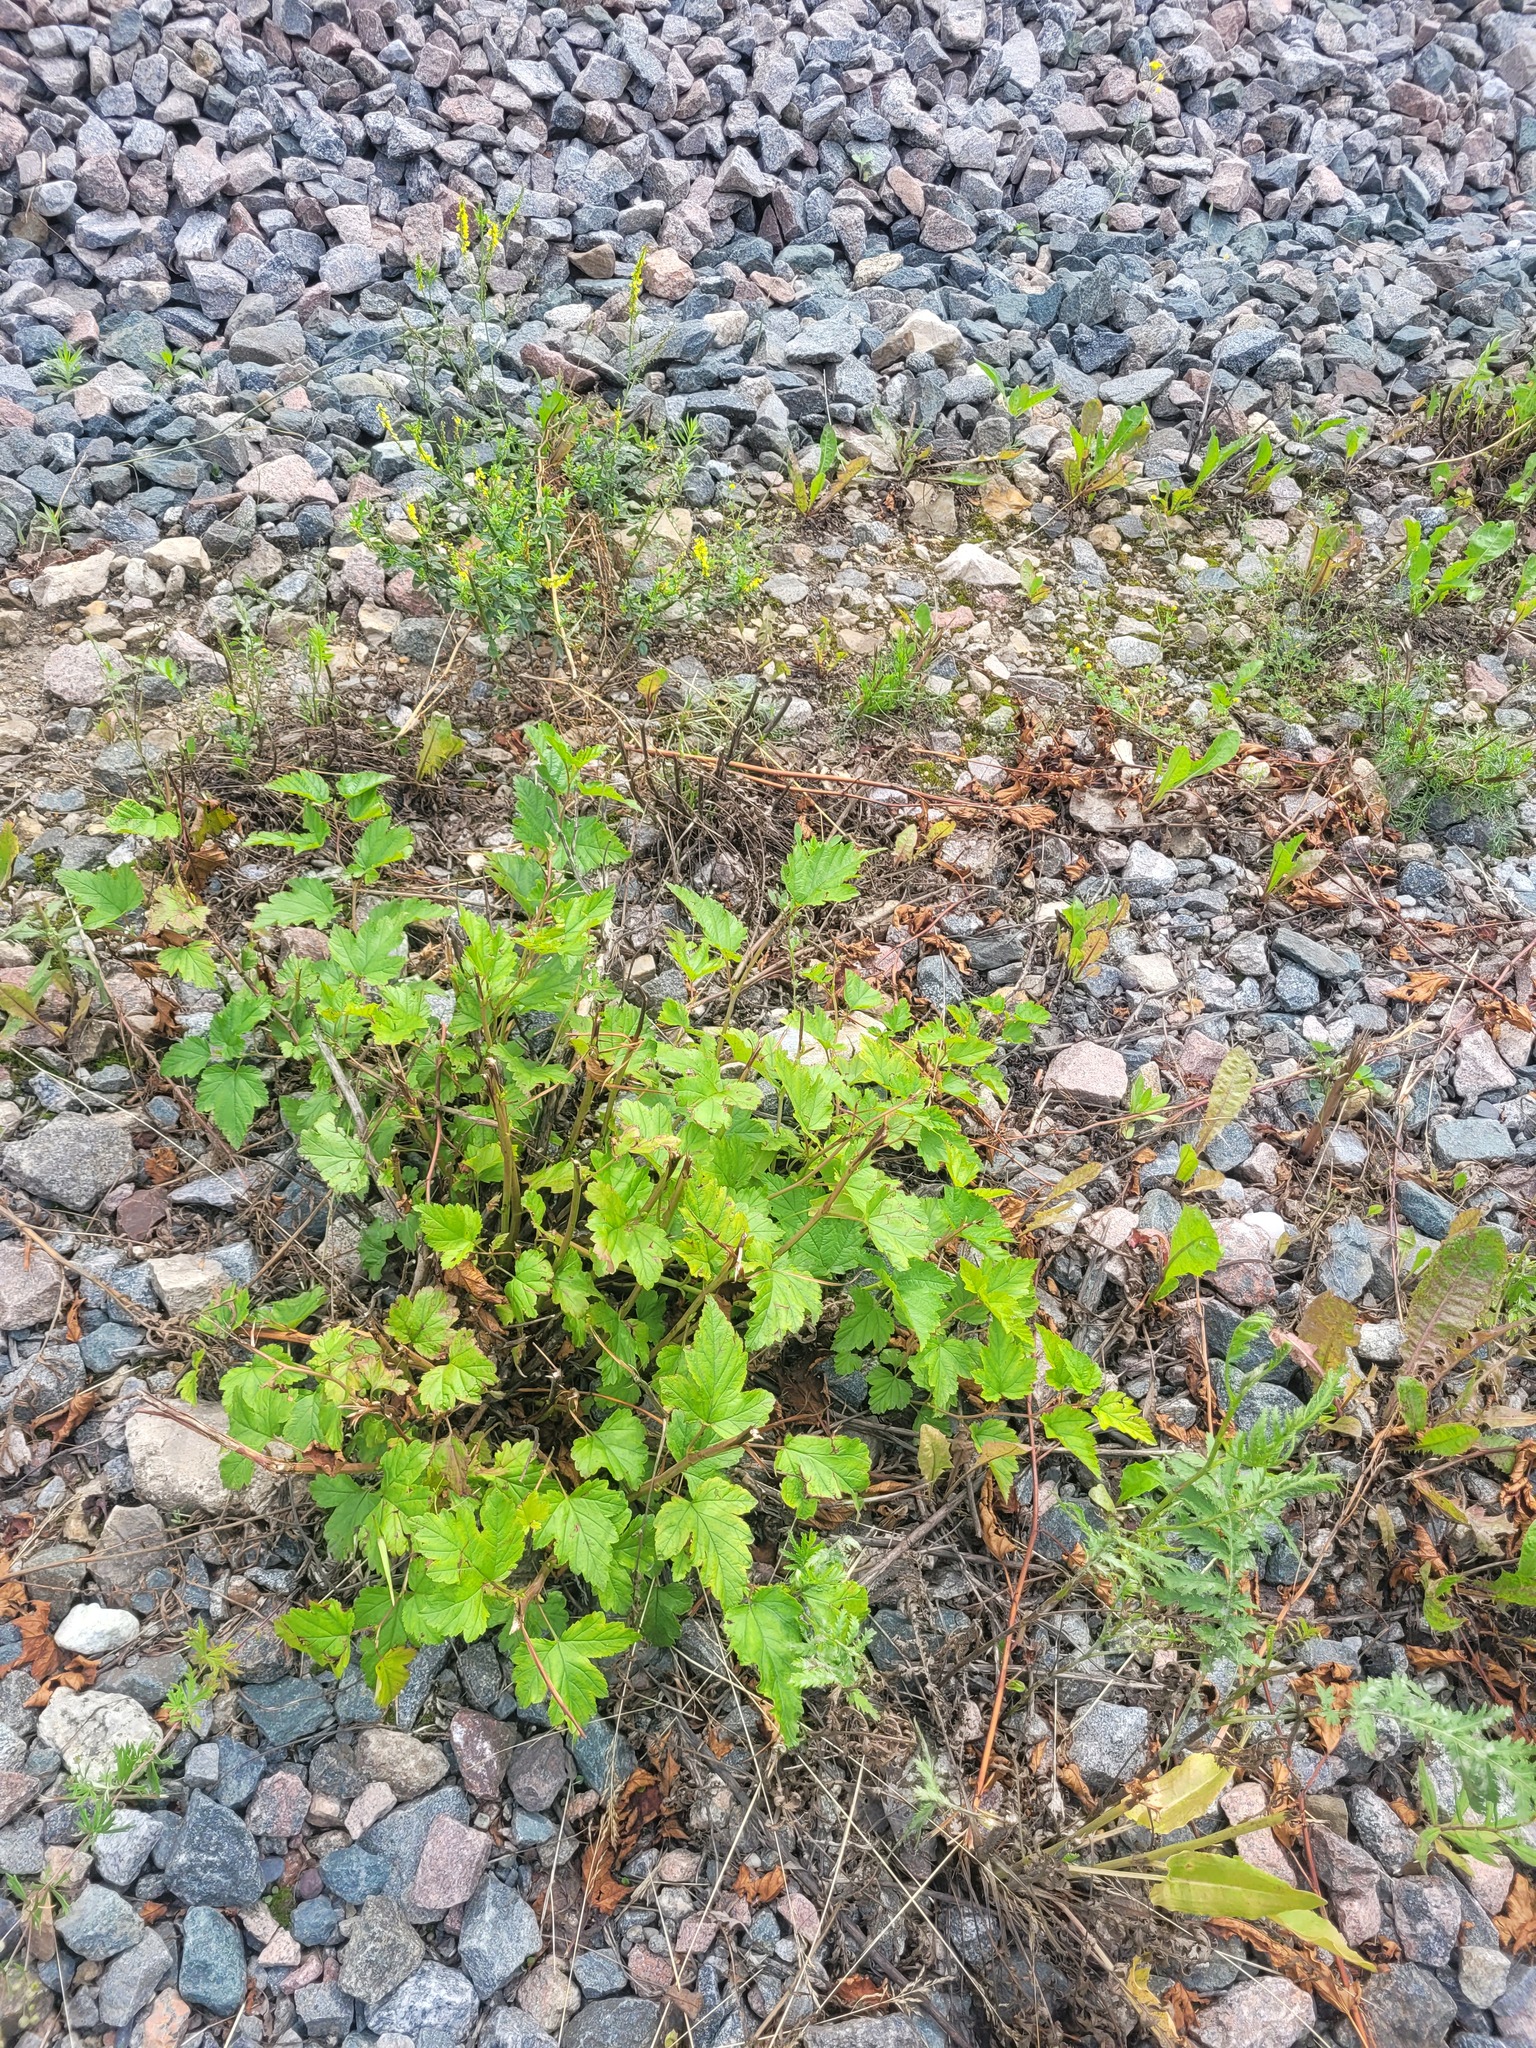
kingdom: Plantae
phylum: Tracheophyta
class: Magnoliopsida
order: Rosales
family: Rosaceae
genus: Physocarpus
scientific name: Physocarpus opulifolius
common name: Ninebark
